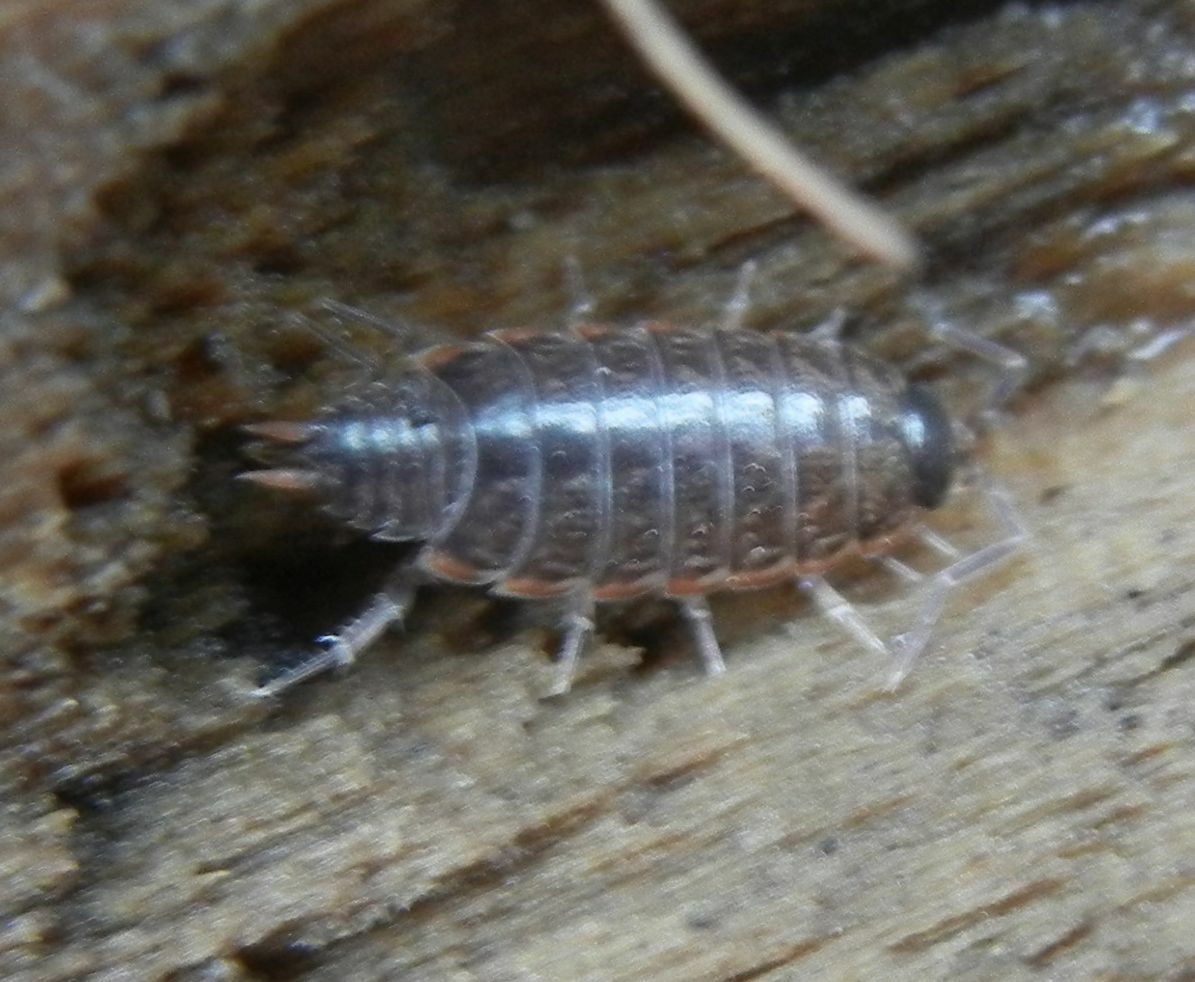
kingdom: Animalia
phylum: Arthropoda
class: Malacostraca
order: Isopoda
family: Philosciidae
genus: Philoscia
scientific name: Philoscia muscorum
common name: Common striped woodlouse
